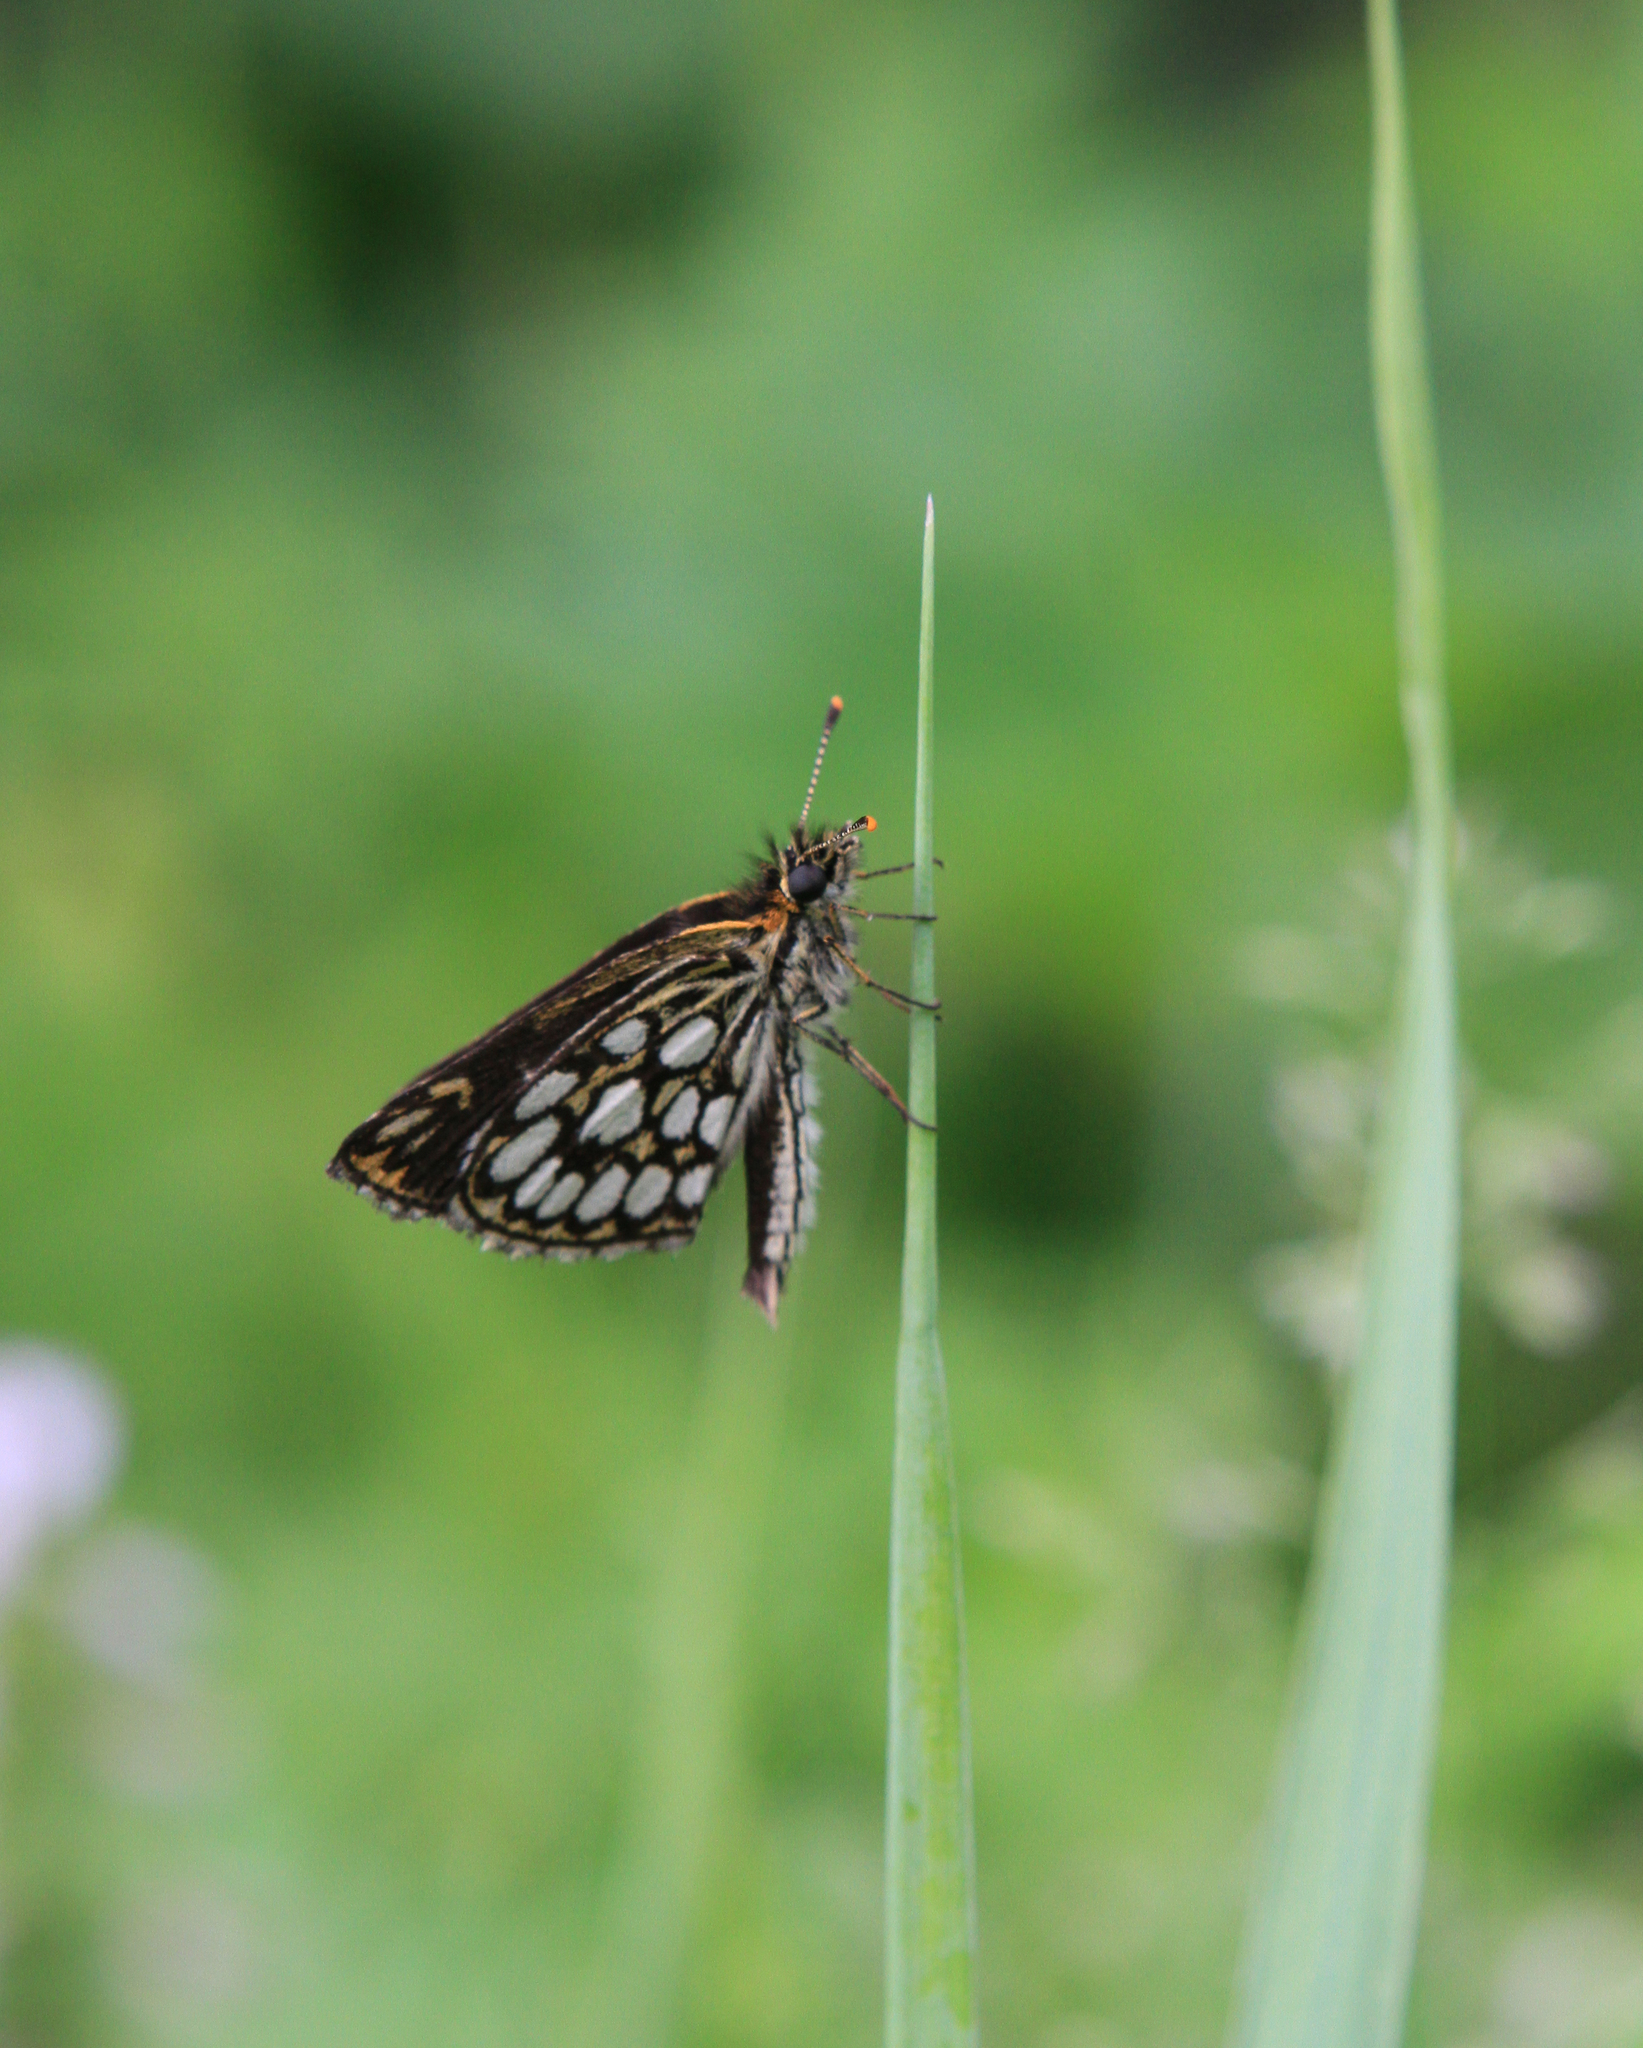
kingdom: Animalia
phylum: Arthropoda
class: Insecta
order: Lepidoptera
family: Hesperiidae
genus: Heteropterus
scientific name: Heteropterus morpheus
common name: Large chequered skipper
